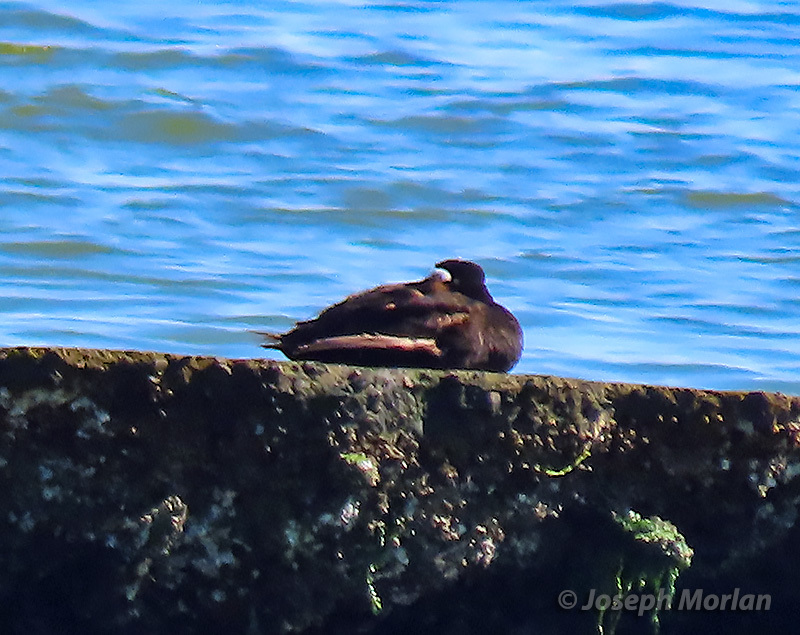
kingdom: Animalia
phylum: Chordata
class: Aves
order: Anseriformes
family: Anatidae
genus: Melanitta
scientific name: Melanitta perspicillata
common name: Surf scoter
